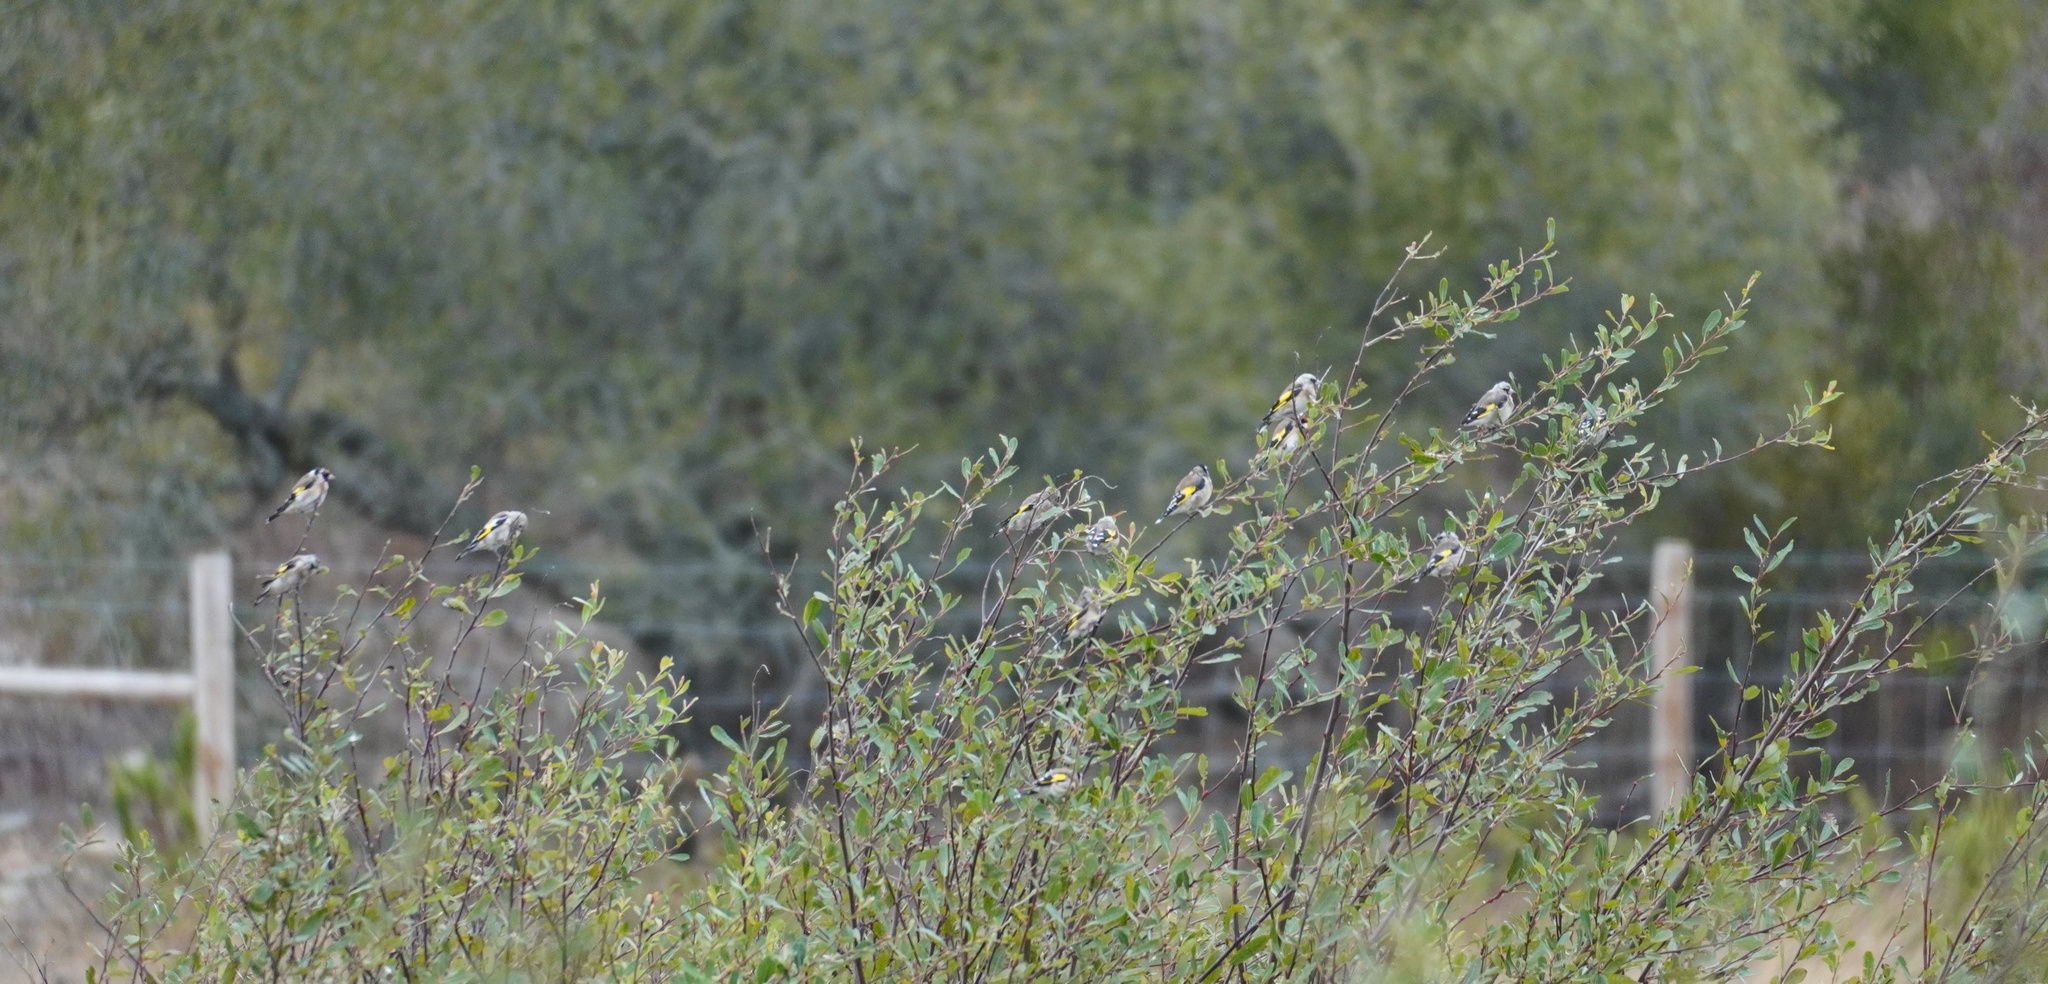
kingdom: Animalia
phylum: Chordata
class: Aves
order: Passeriformes
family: Fringillidae
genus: Carduelis
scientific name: Carduelis carduelis
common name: European goldfinch
